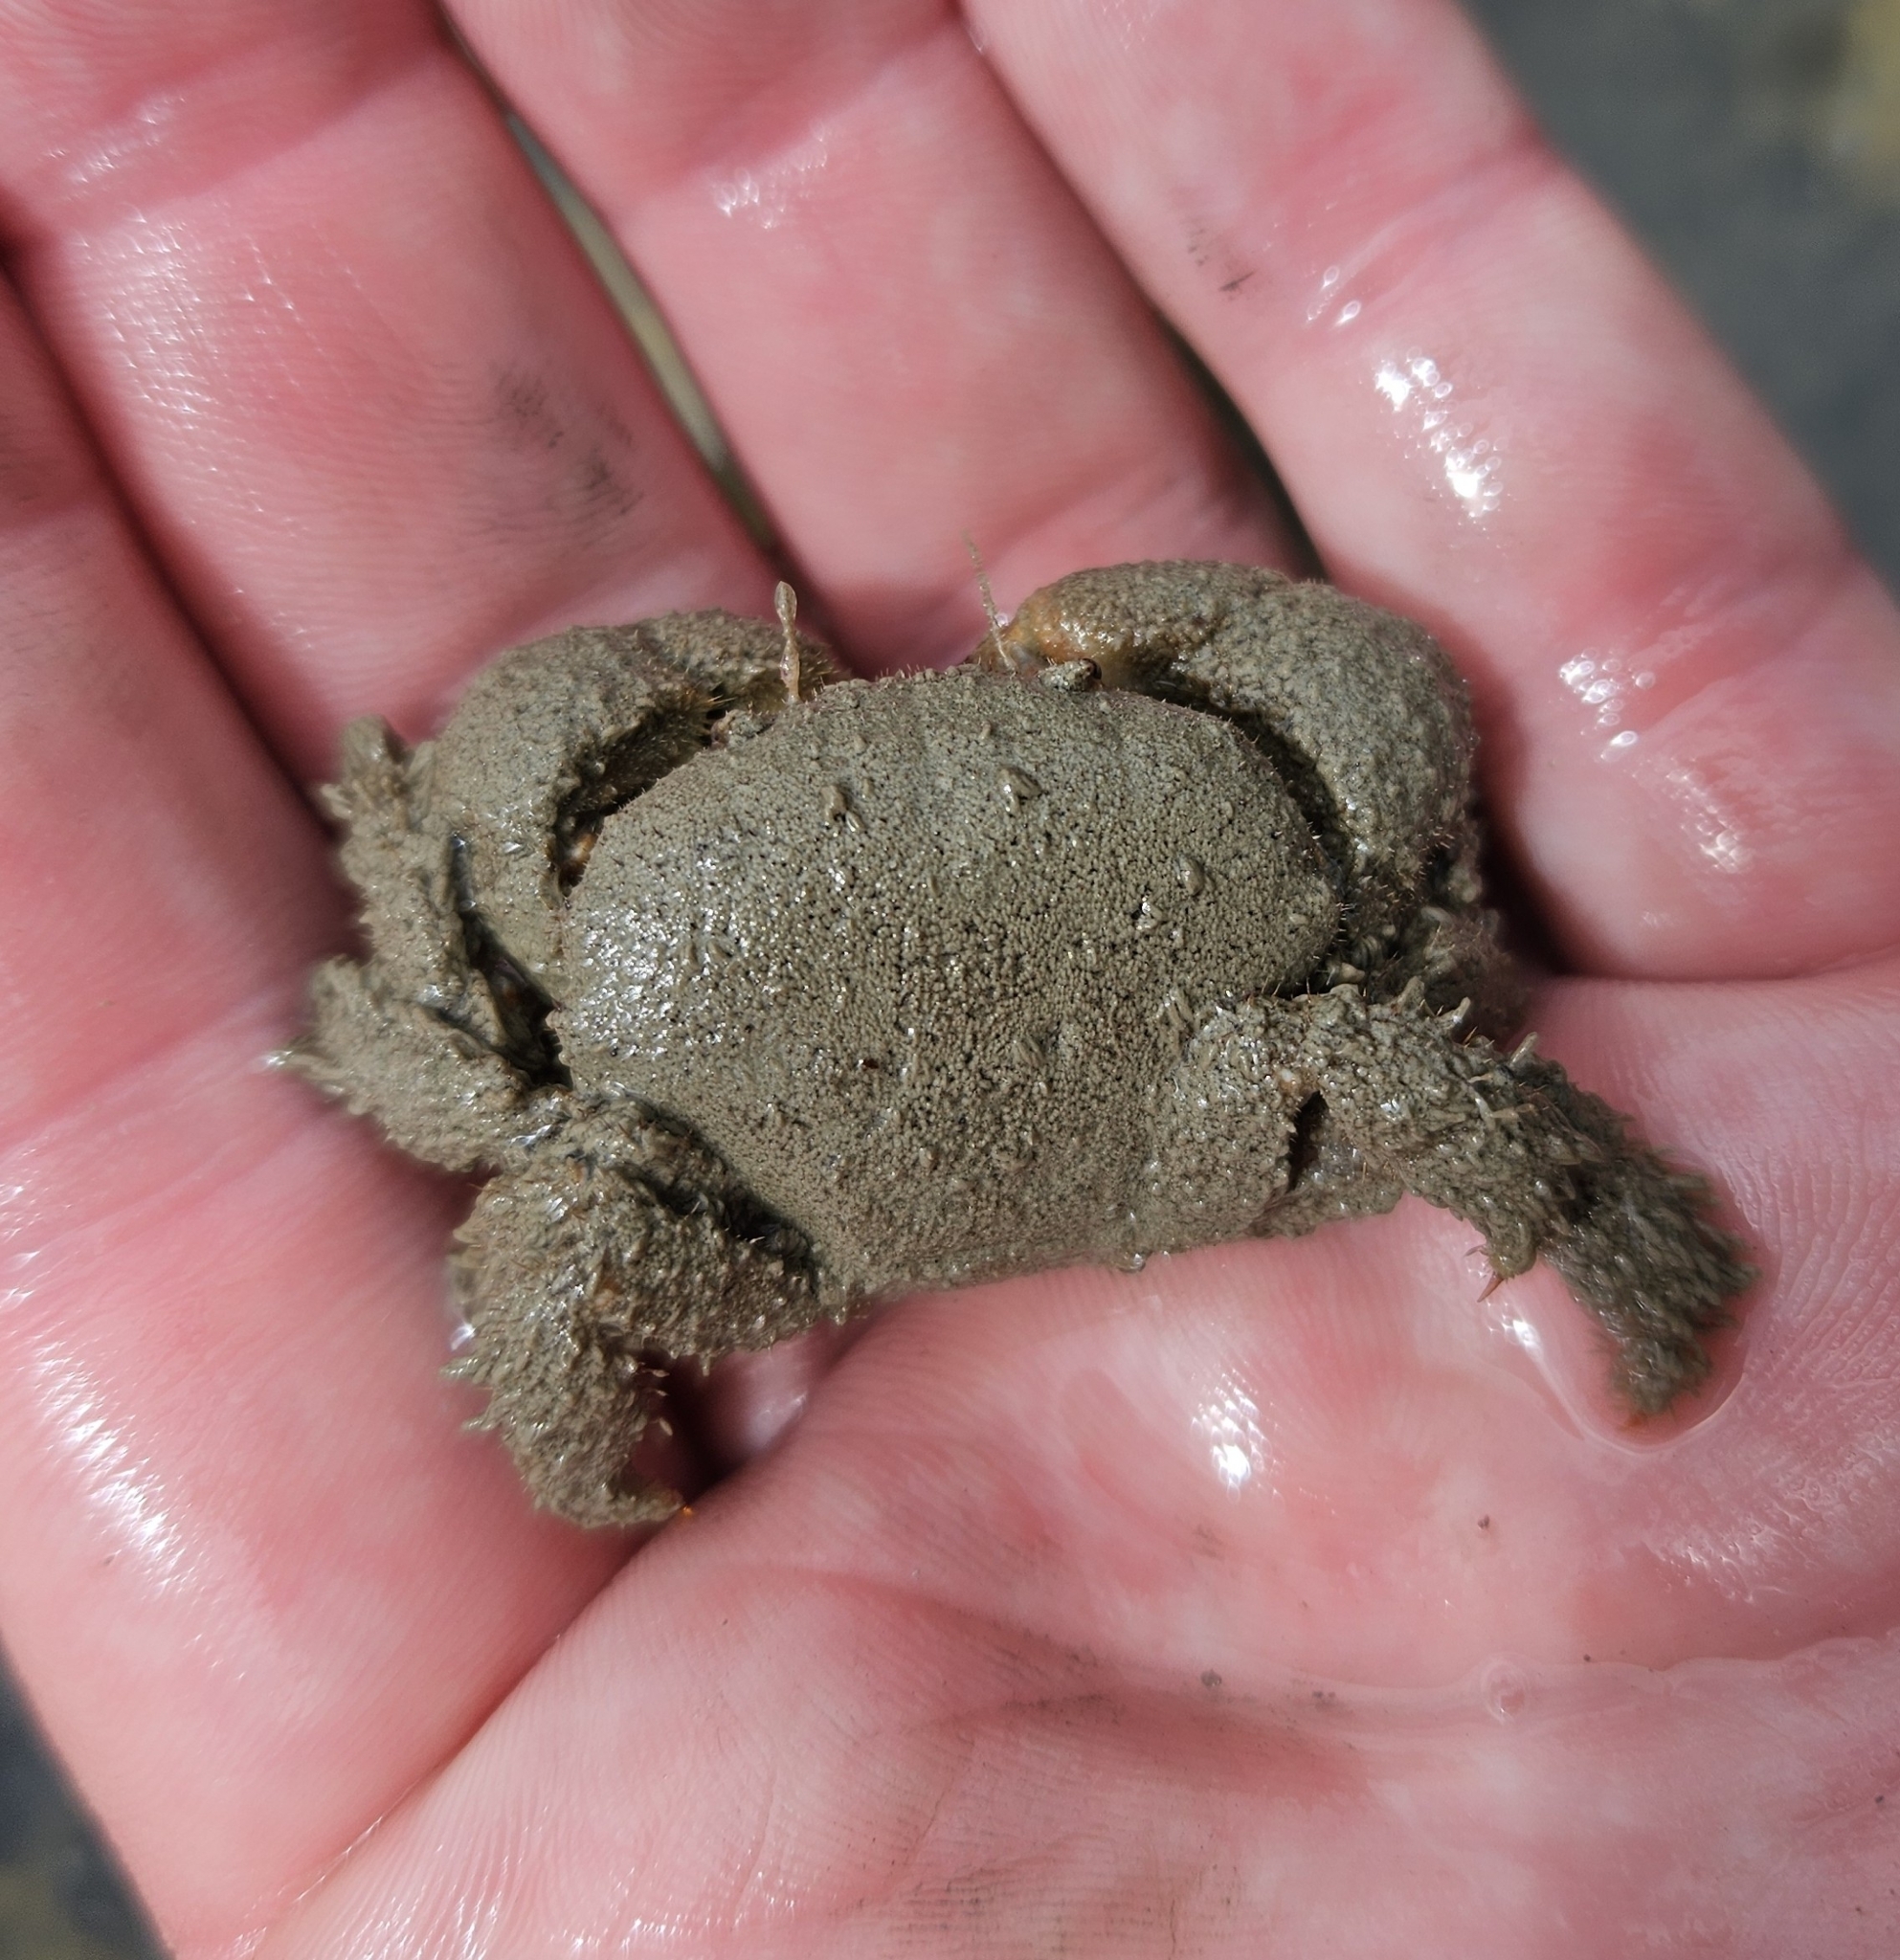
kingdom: Animalia
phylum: Arthropoda
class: Malacostraca
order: Decapoda
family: Pilumnidae
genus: Pilumnus
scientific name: Pilumnus lumpinus
